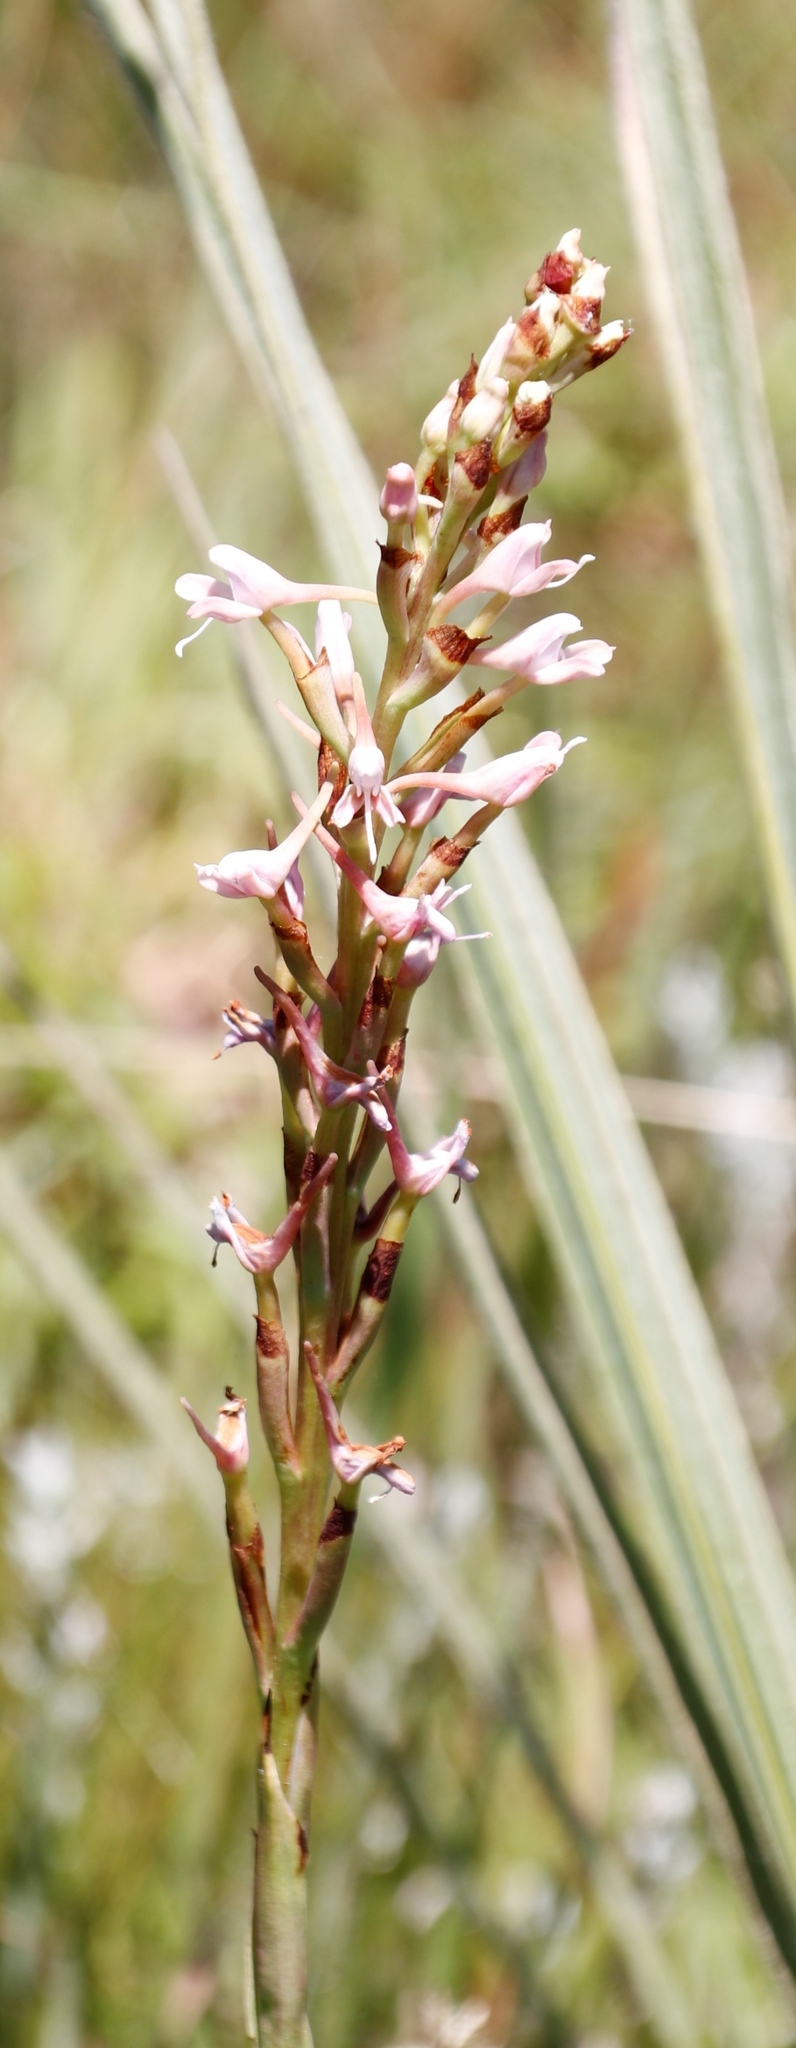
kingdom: Plantae
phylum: Tracheophyta
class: Liliopsida
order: Asparagales
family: Orchidaceae
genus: Disa
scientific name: Disa patula
